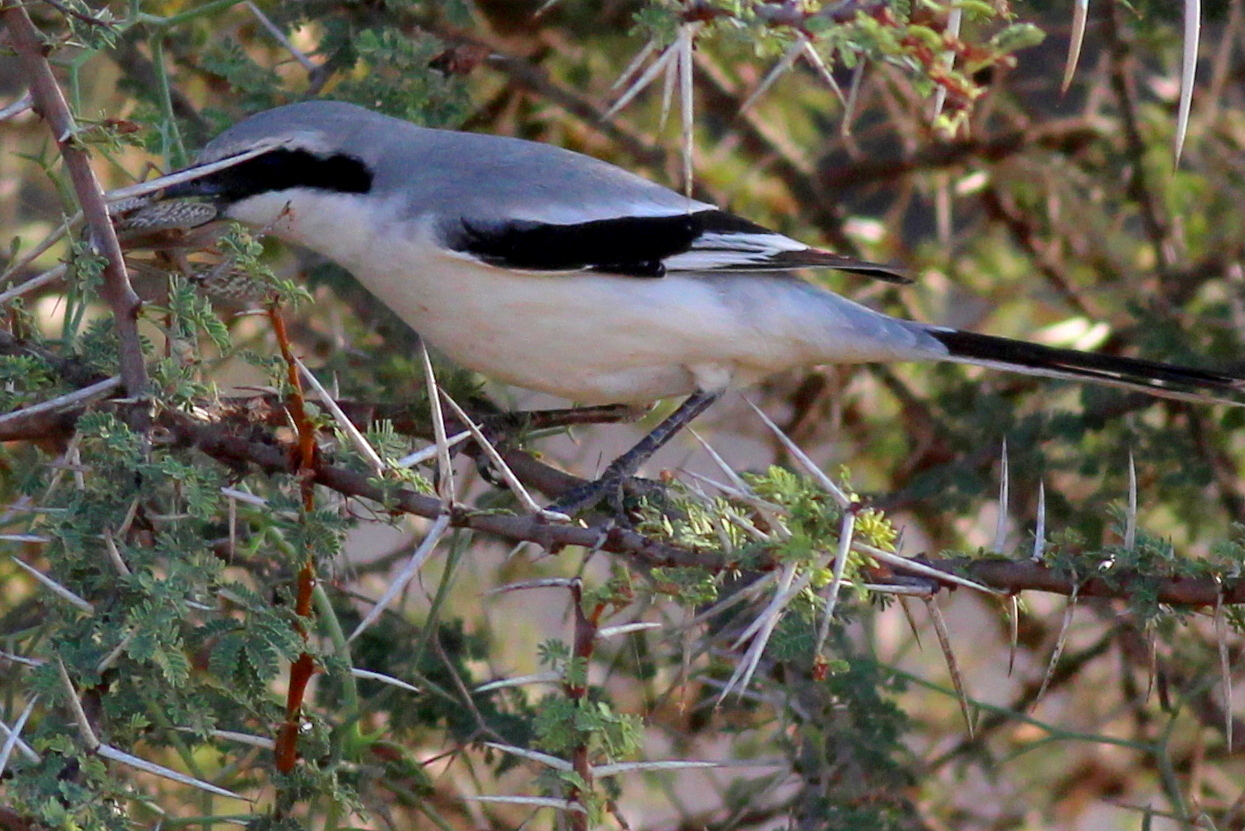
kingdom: Animalia
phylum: Chordata
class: Aves
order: Passeriformes
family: Laniidae
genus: Lanius
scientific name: Lanius excubitor
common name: Great grey shrike
